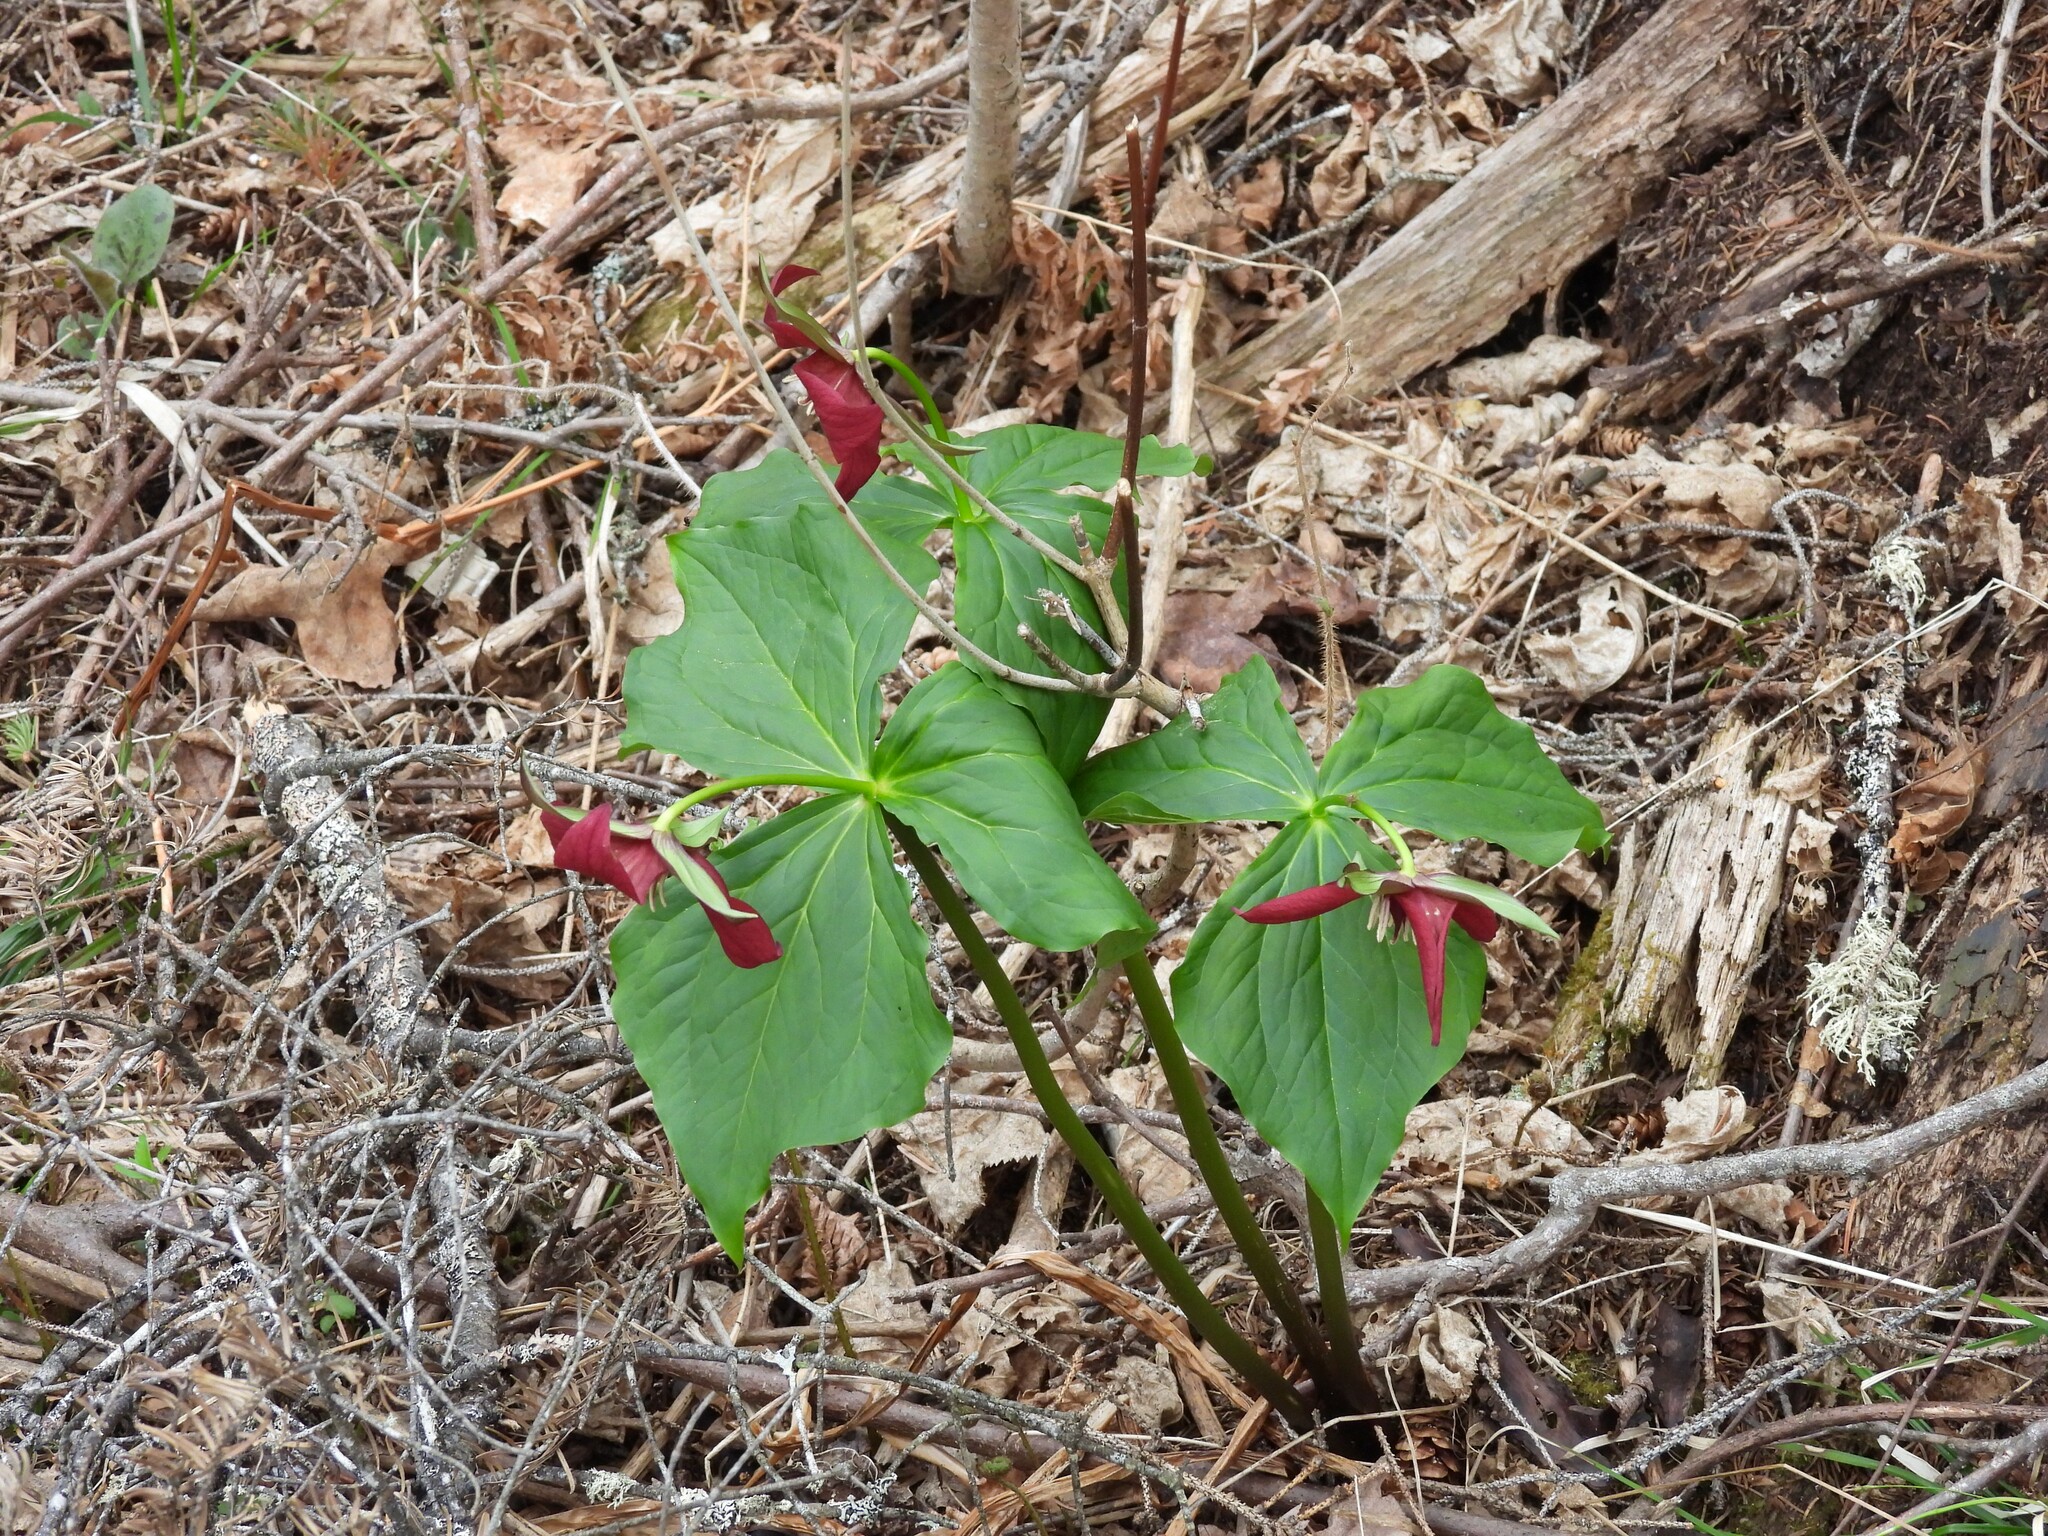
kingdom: Plantae
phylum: Tracheophyta
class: Liliopsida
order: Liliales
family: Melanthiaceae
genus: Trillium
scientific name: Trillium erectum
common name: Purple trillium
